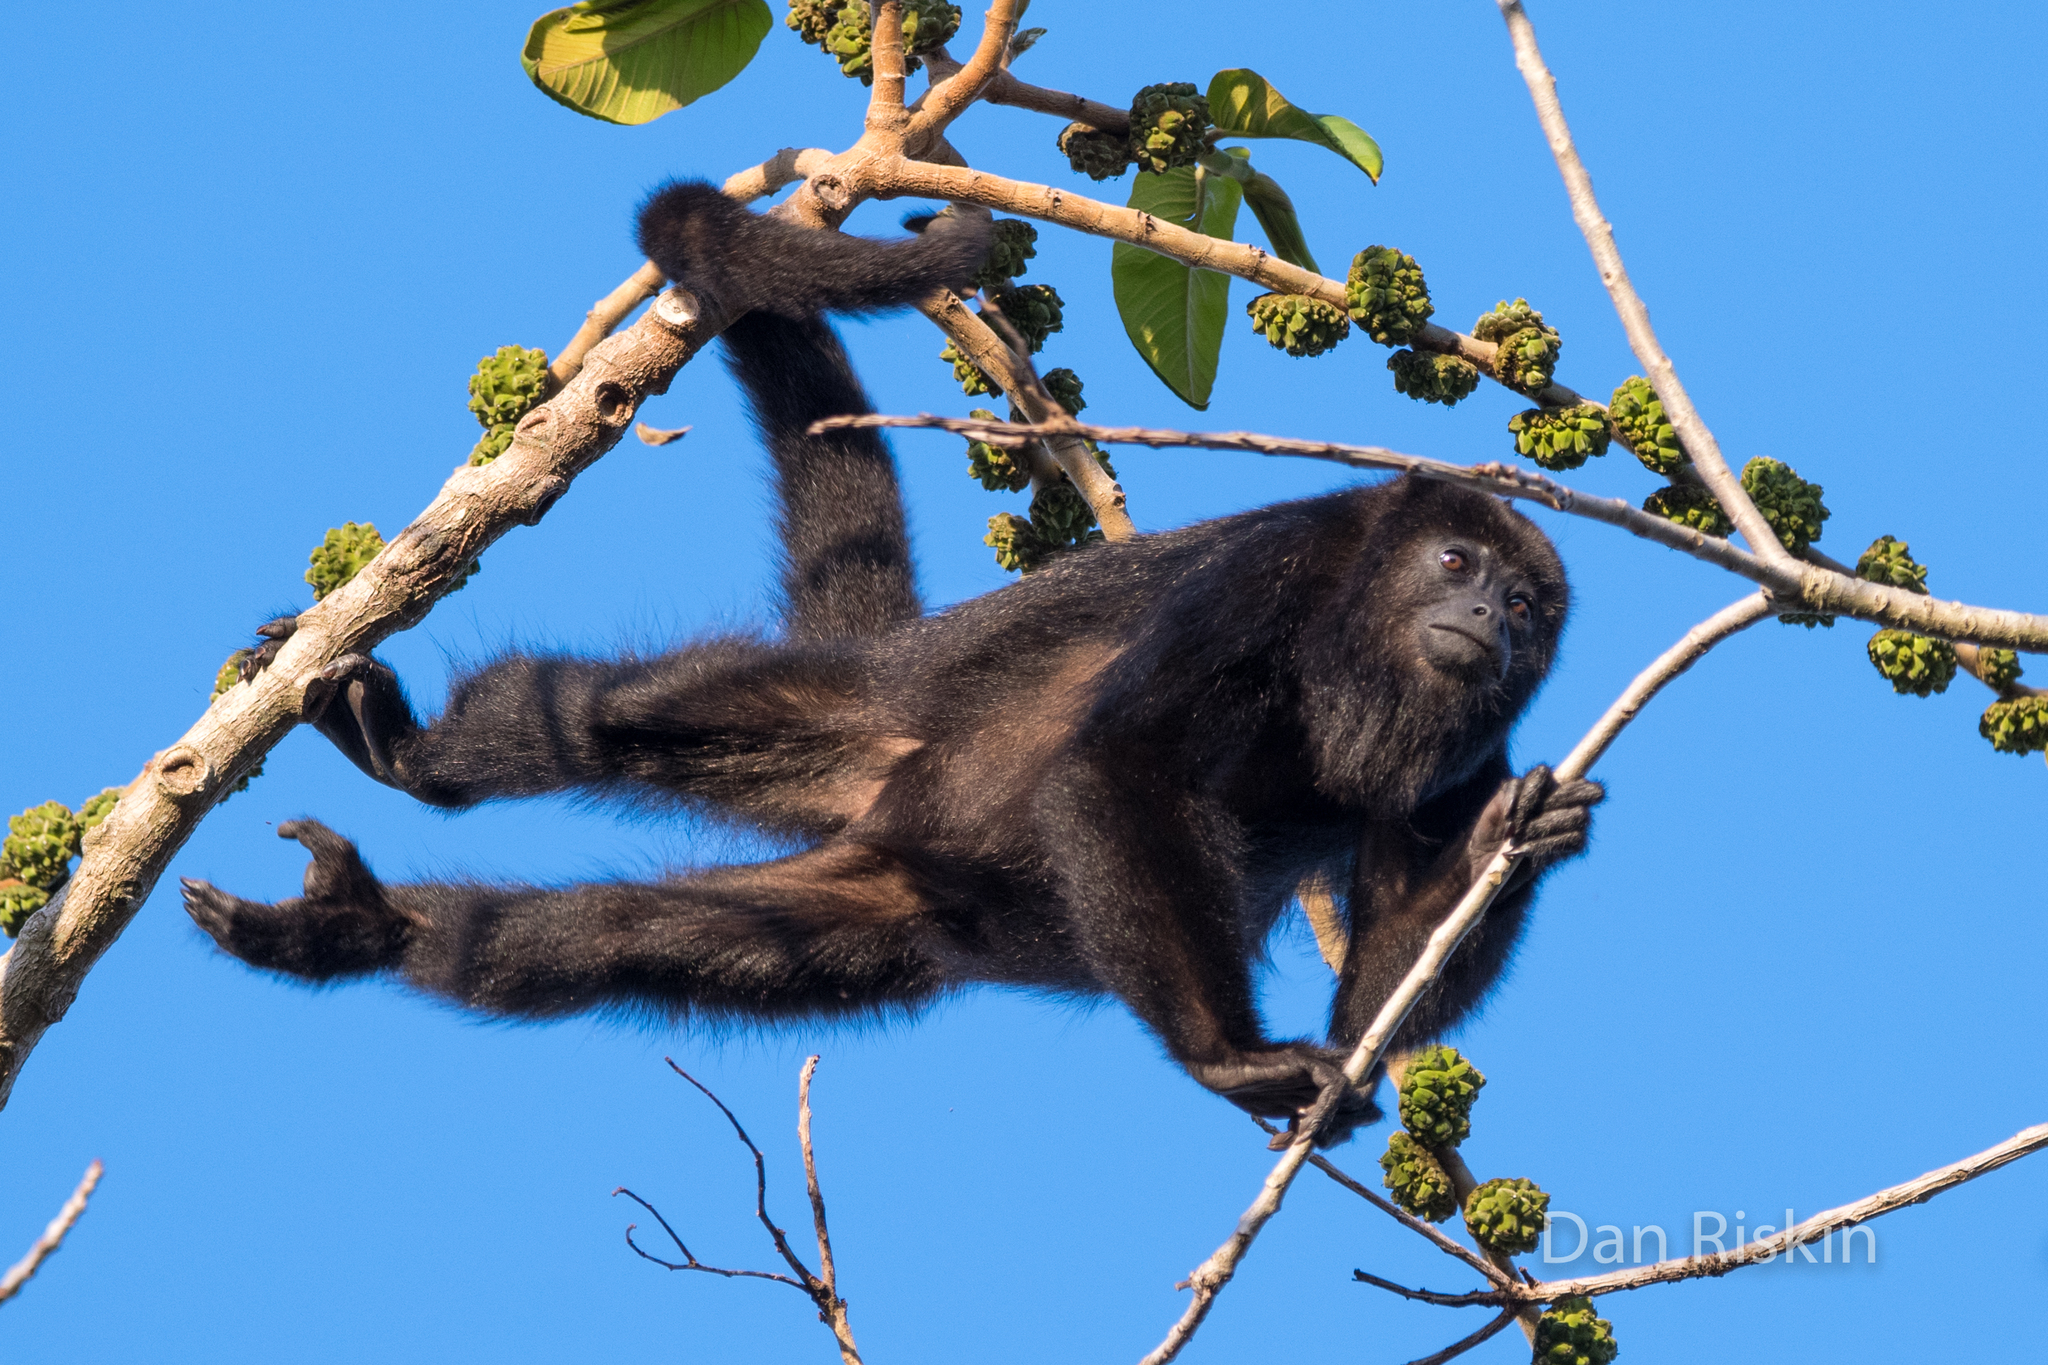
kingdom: Animalia
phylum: Chordata
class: Mammalia
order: Primates
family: Atelidae
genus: Alouatta
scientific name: Alouatta pigra
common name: Guatemalan black howler
